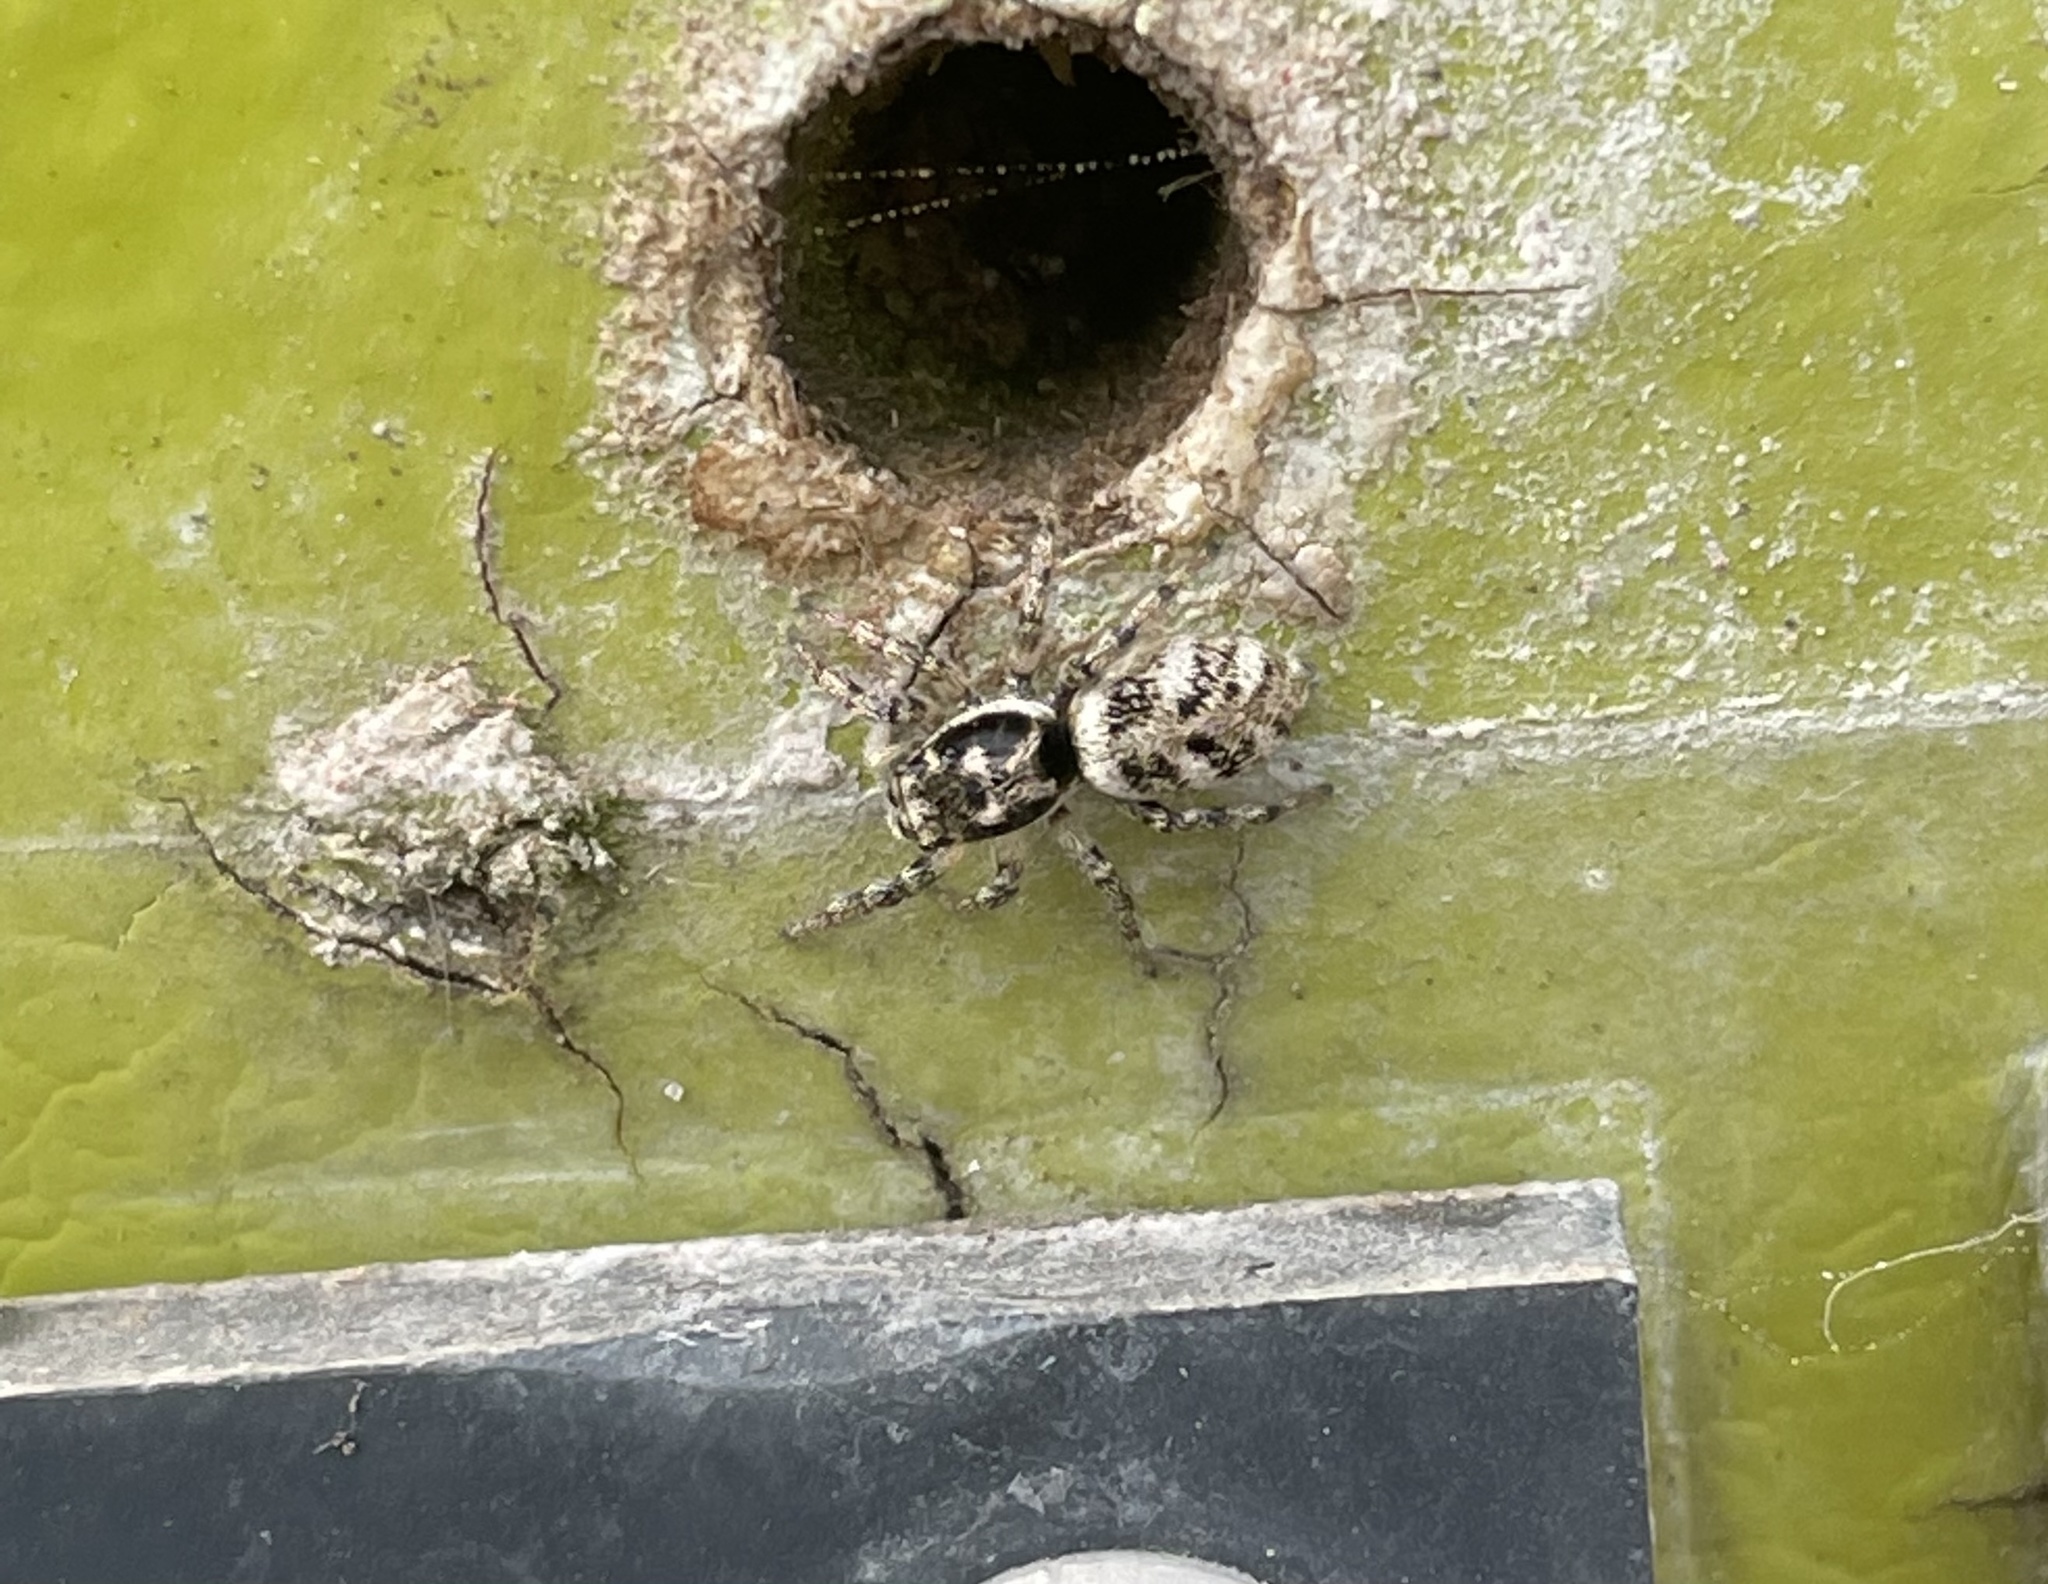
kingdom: Animalia
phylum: Arthropoda
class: Arachnida
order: Araneae
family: Salticidae
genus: Salticus
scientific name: Salticus scenicus
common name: Zebra jumper
